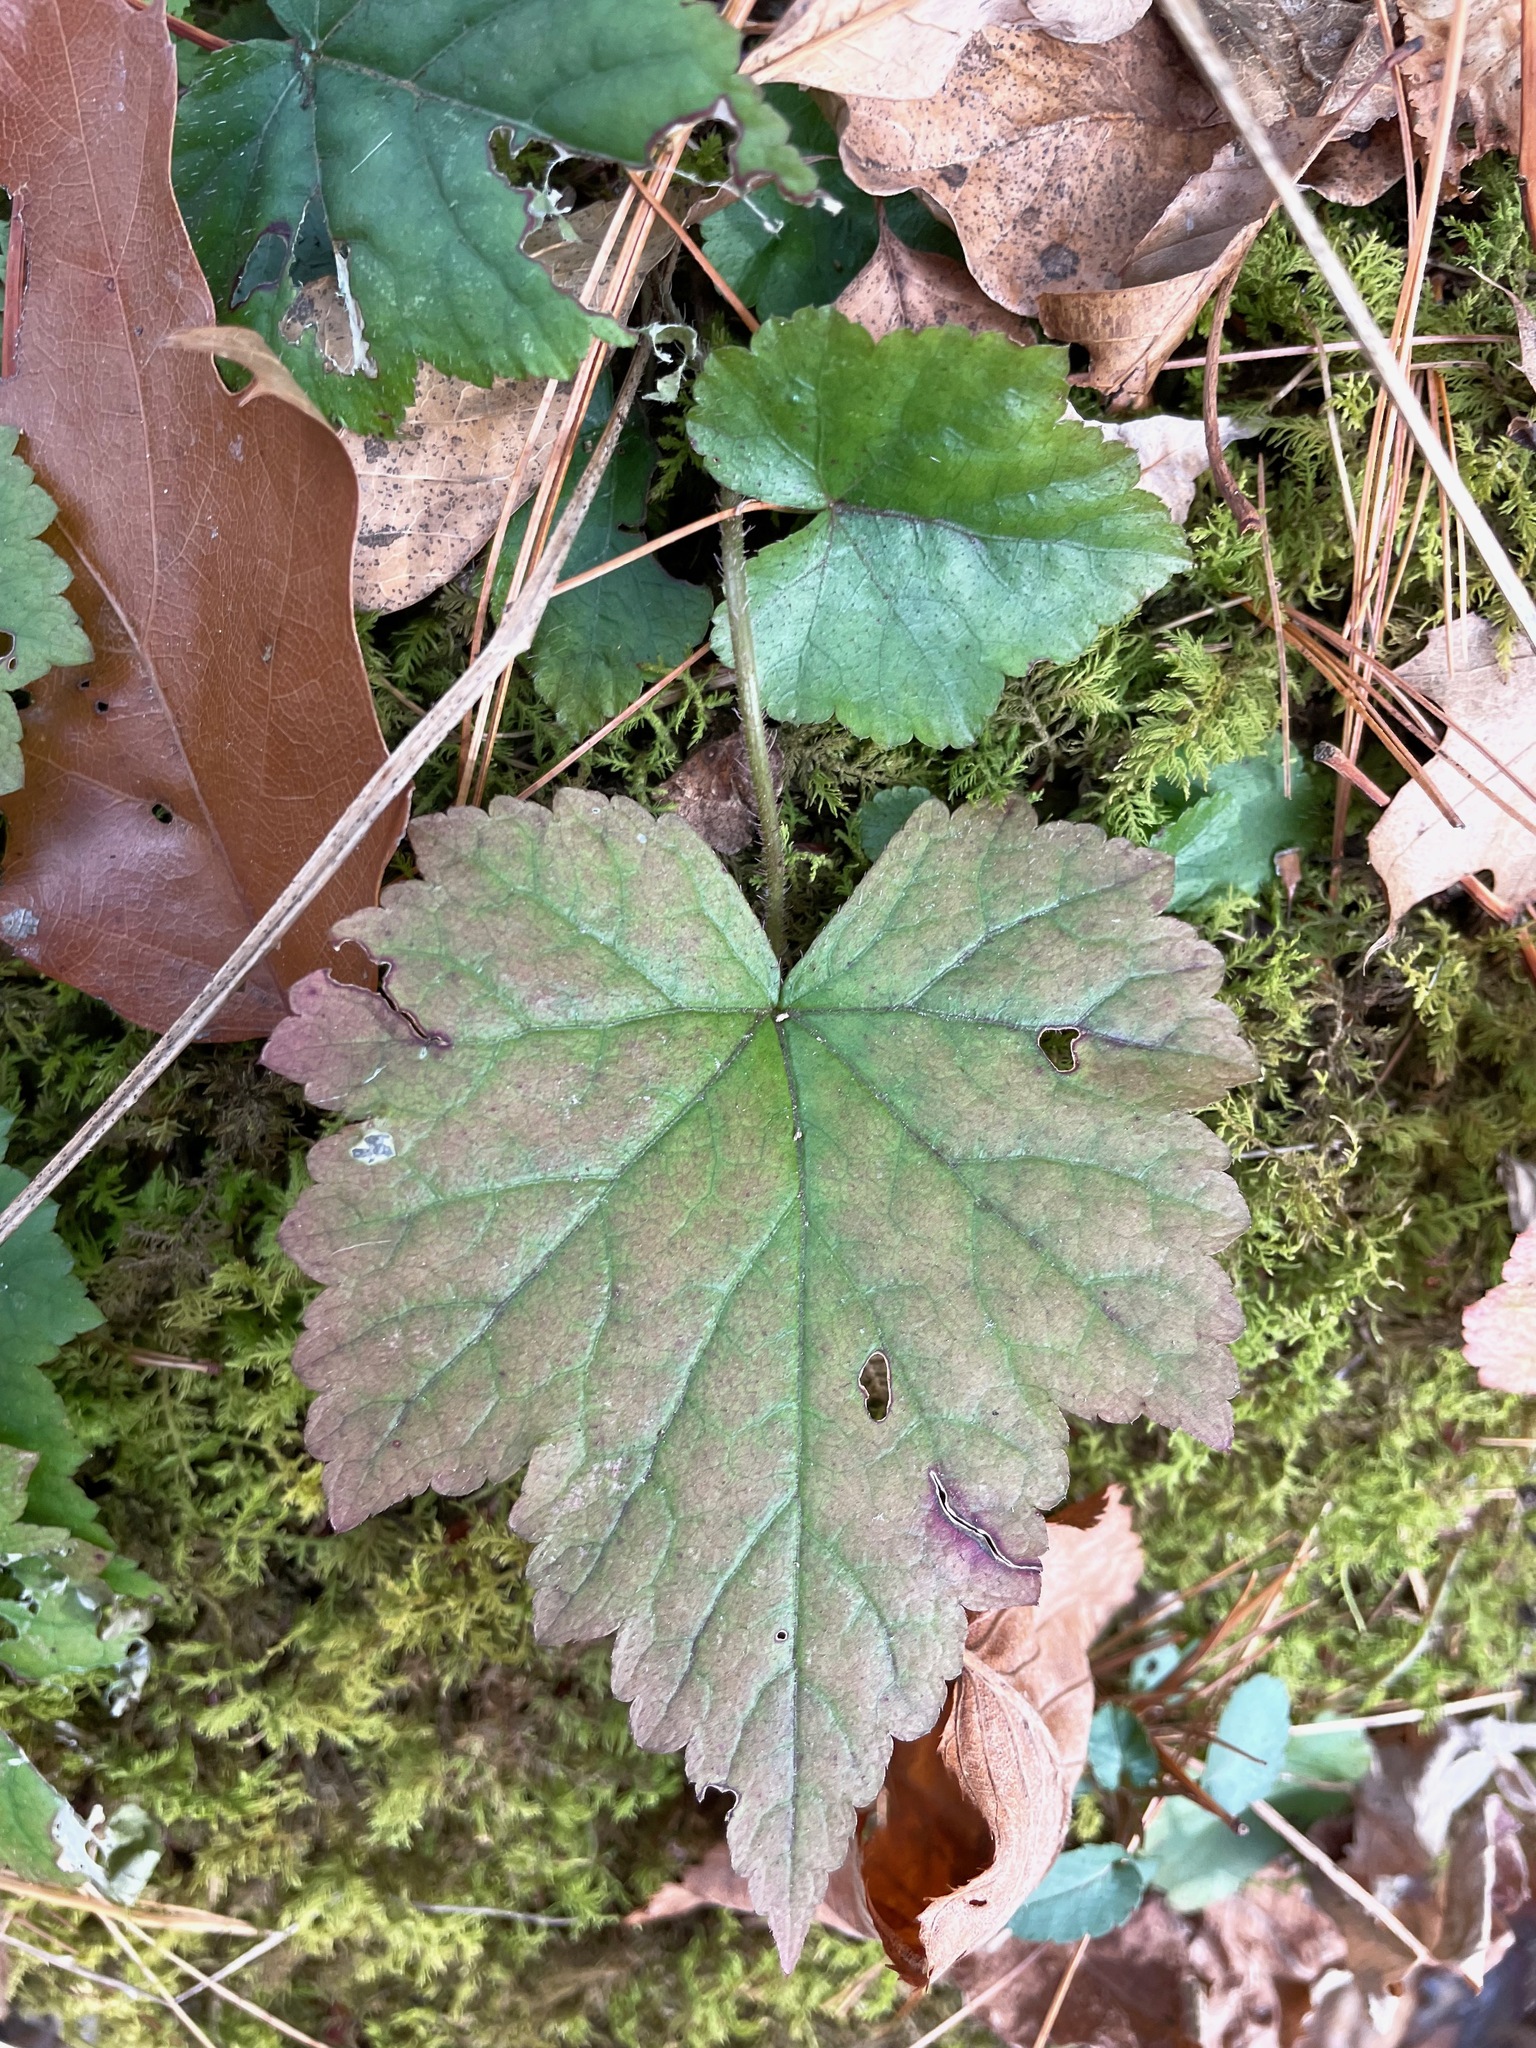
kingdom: Plantae
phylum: Tracheophyta
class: Magnoliopsida
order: Saxifragales
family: Saxifragaceae
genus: Tiarella
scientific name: Tiarella stolonifera
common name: Stoloniferous foamflower
